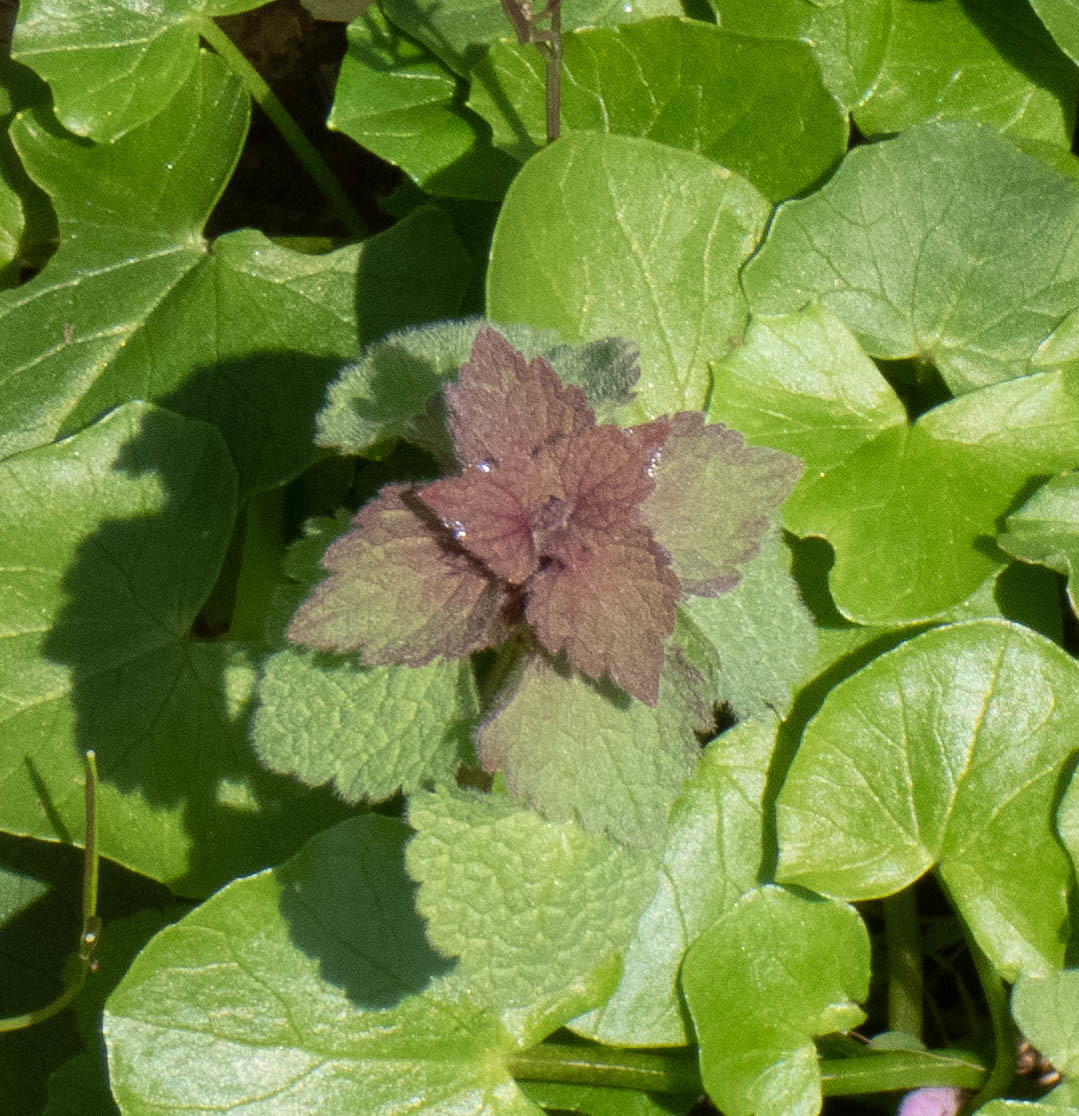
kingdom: Plantae
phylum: Tracheophyta
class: Magnoliopsida
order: Lamiales
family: Lamiaceae
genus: Lamium
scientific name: Lamium purpureum
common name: Red dead-nettle
